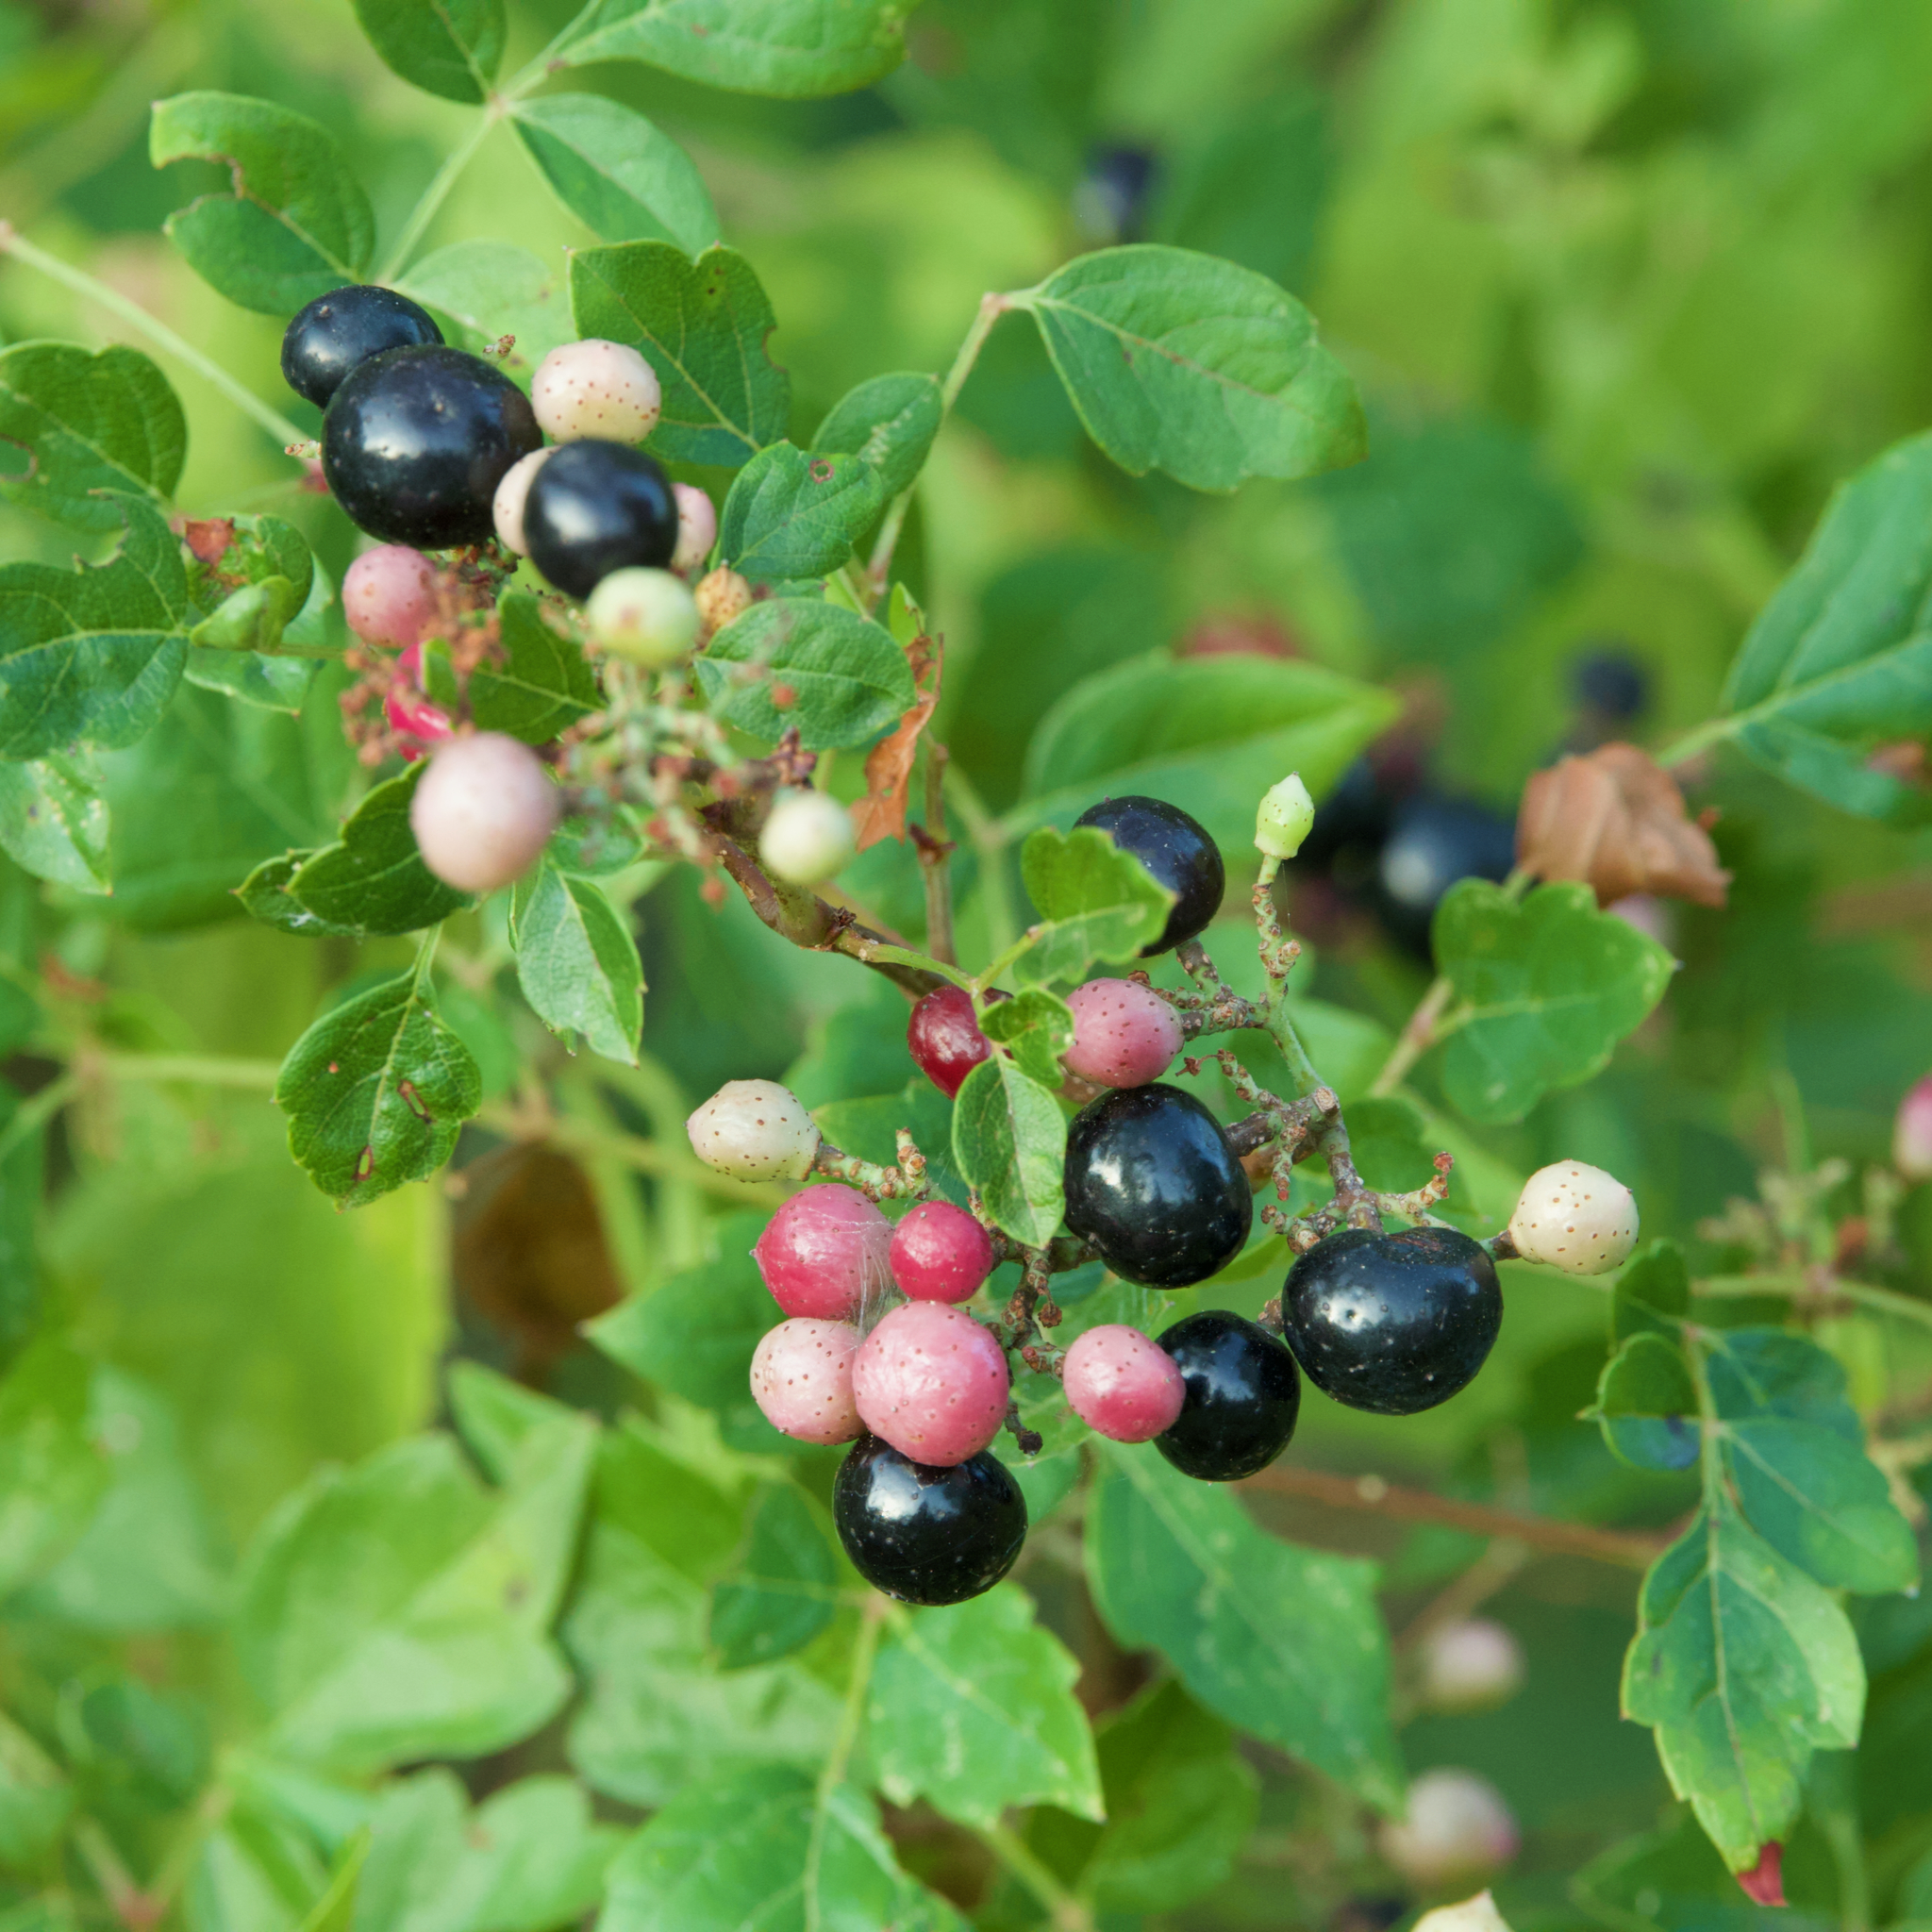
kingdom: Plantae
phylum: Tracheophyta
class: Magnoliopsida
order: Vitales
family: Vitaceae
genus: Nekemias
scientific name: Nekemias arborea
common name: Peppervine
